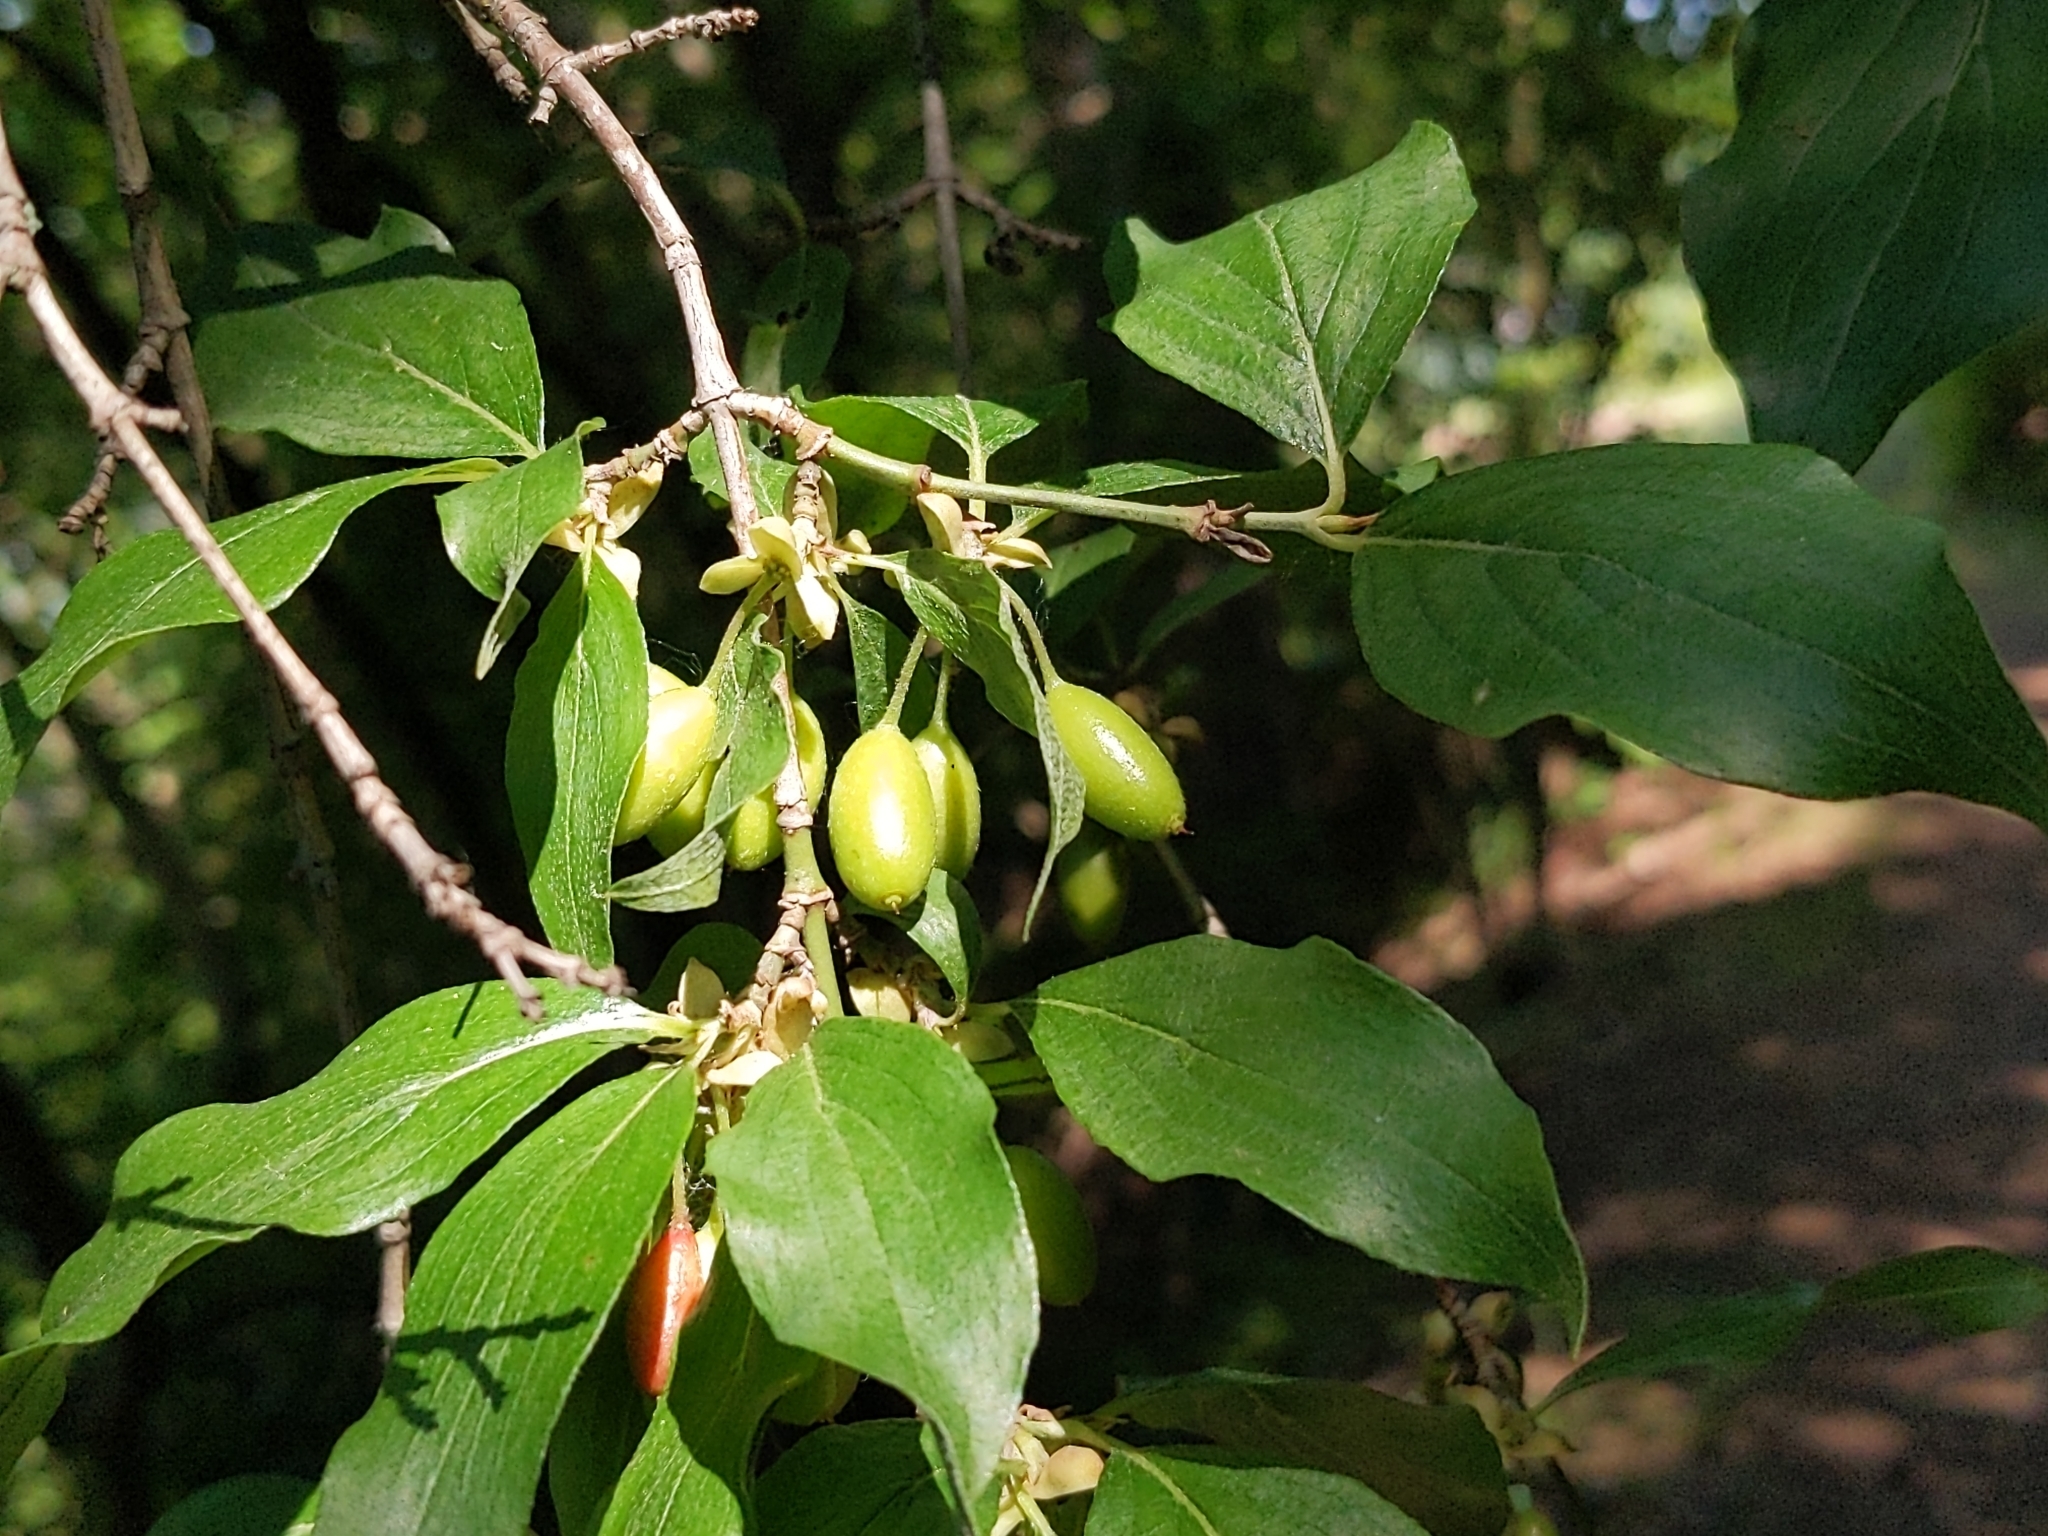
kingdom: Plantae
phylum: Tracheophyta
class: Magnoliopsida
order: Cornales
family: Cornaceae
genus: Cornus
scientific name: Cornus mas
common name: Cornelian-cherry
